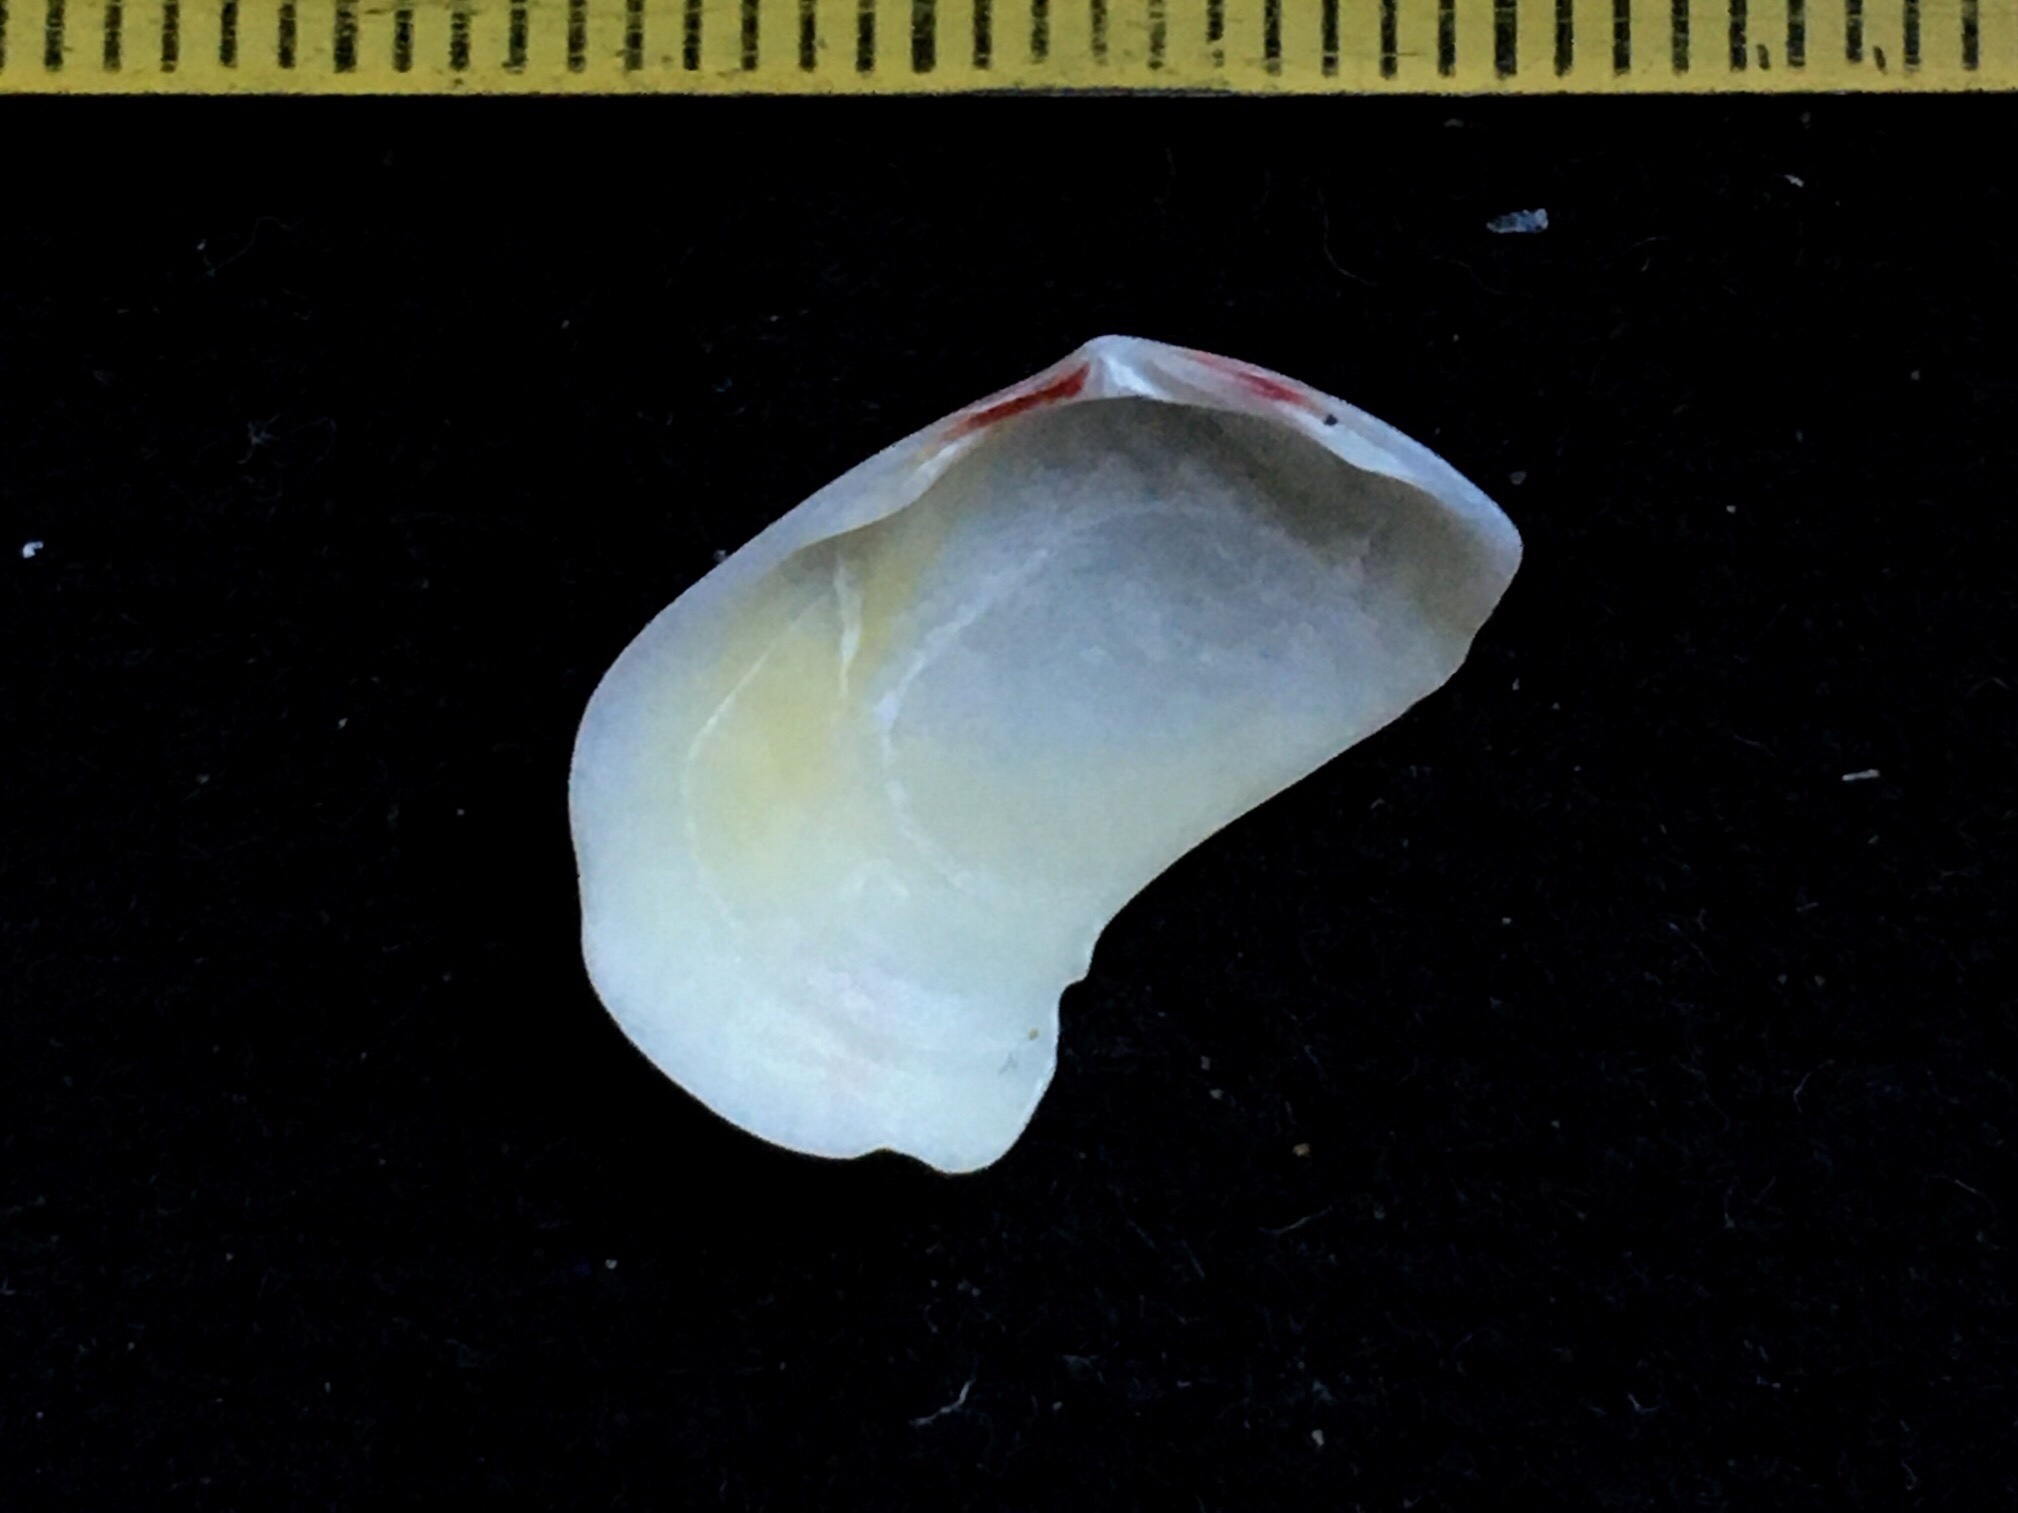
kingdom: Animalia
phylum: Mollusca
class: Bivalvia
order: Cardiida
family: Semelidae
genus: Semele
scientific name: Semele casali
